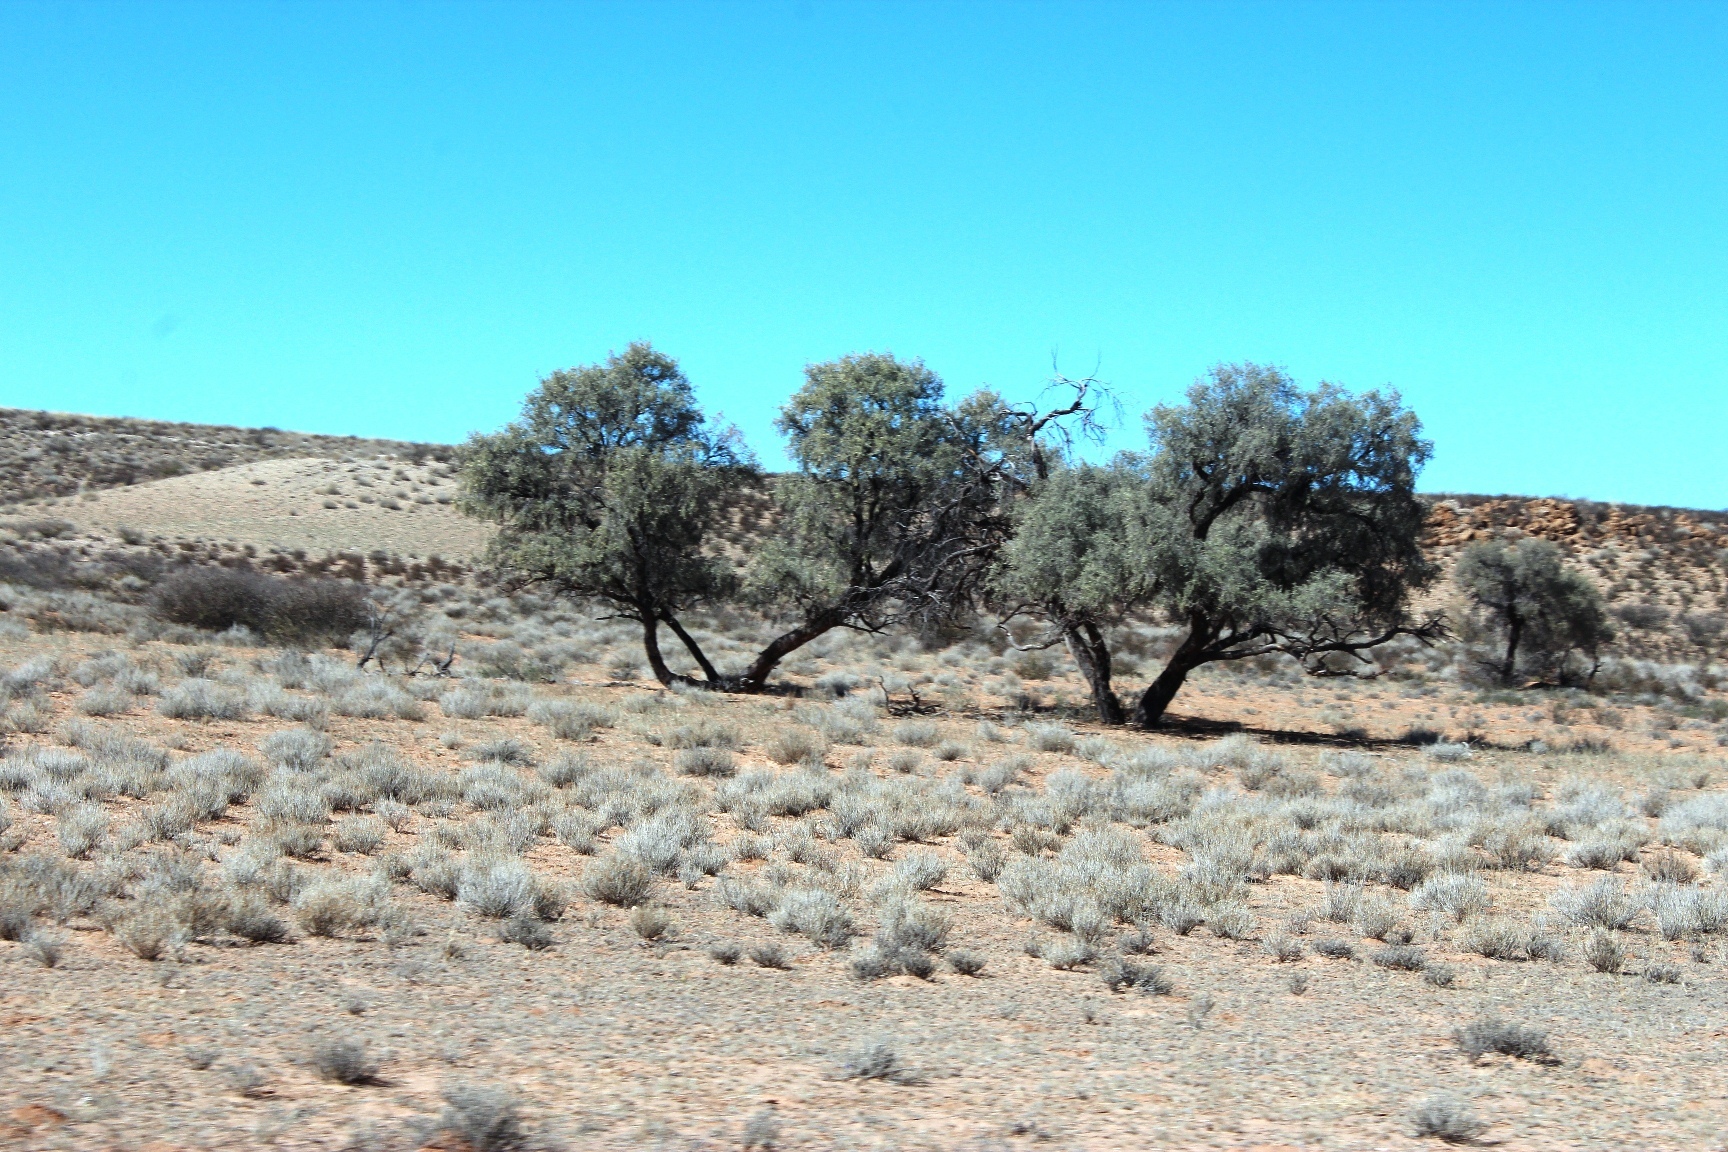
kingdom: Plantae
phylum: Tracheophyta
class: Magnoliopsida
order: Fabales
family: Fabaceae
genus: Vachellia
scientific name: Vachellia erioloba
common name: Camel thorn
